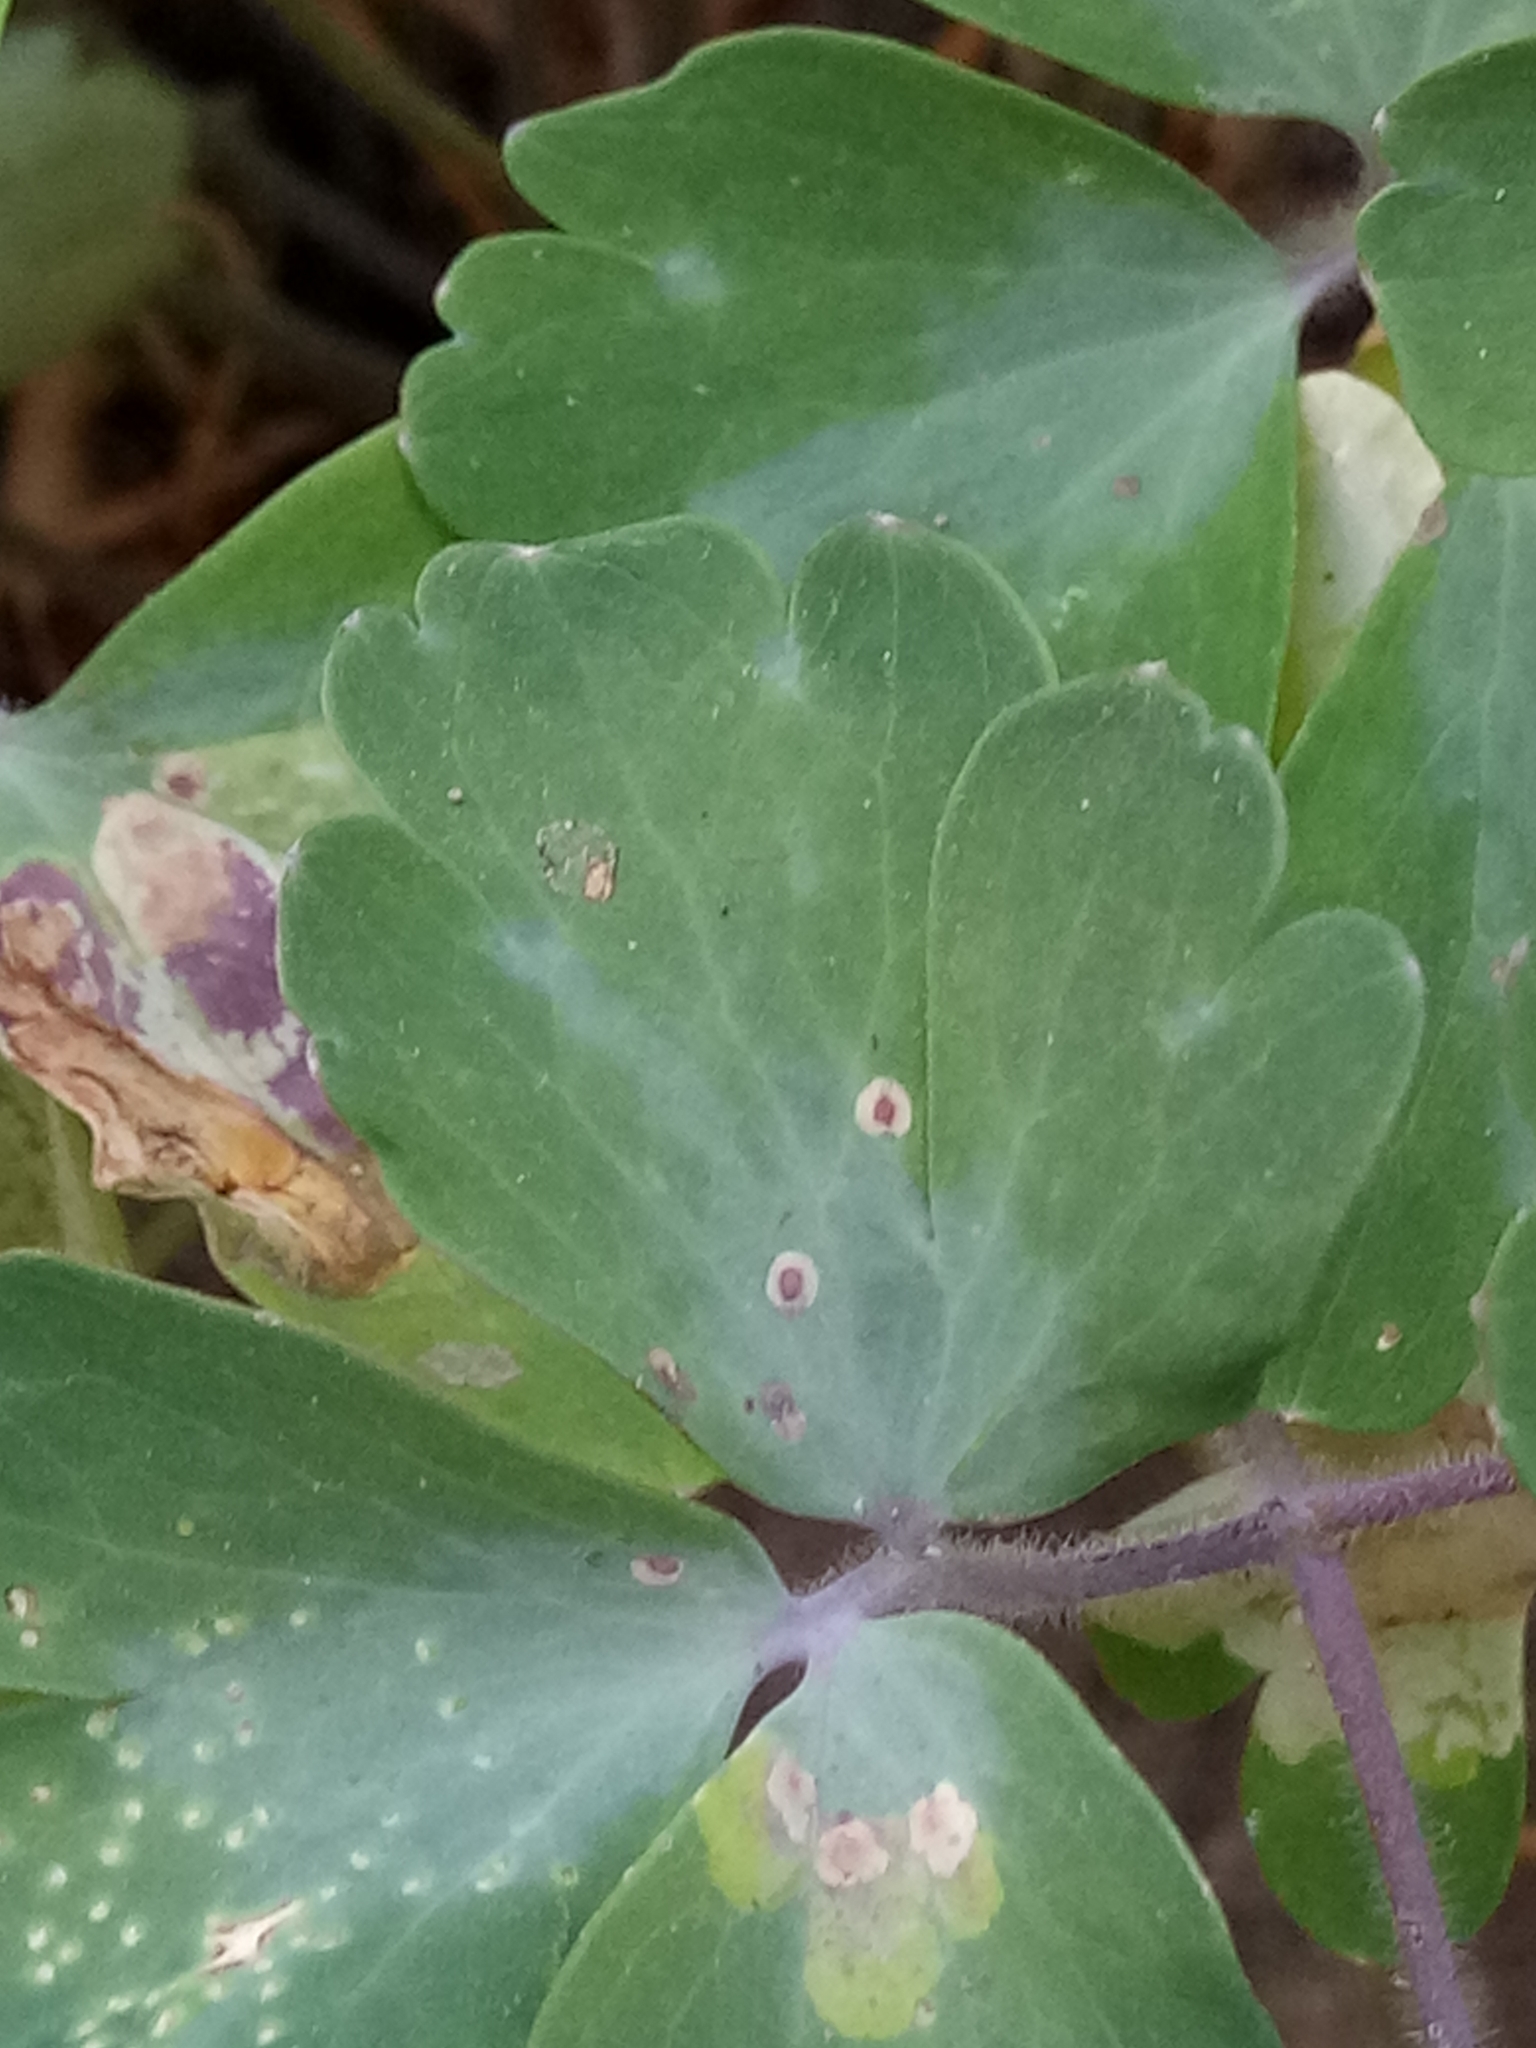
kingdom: Plantae
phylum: Tracheophyta
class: Magnoliopsida
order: Ranunculales
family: Ranunculaceae
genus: Aquilegia
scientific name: Aquilegia vulgaris
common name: Columbine
